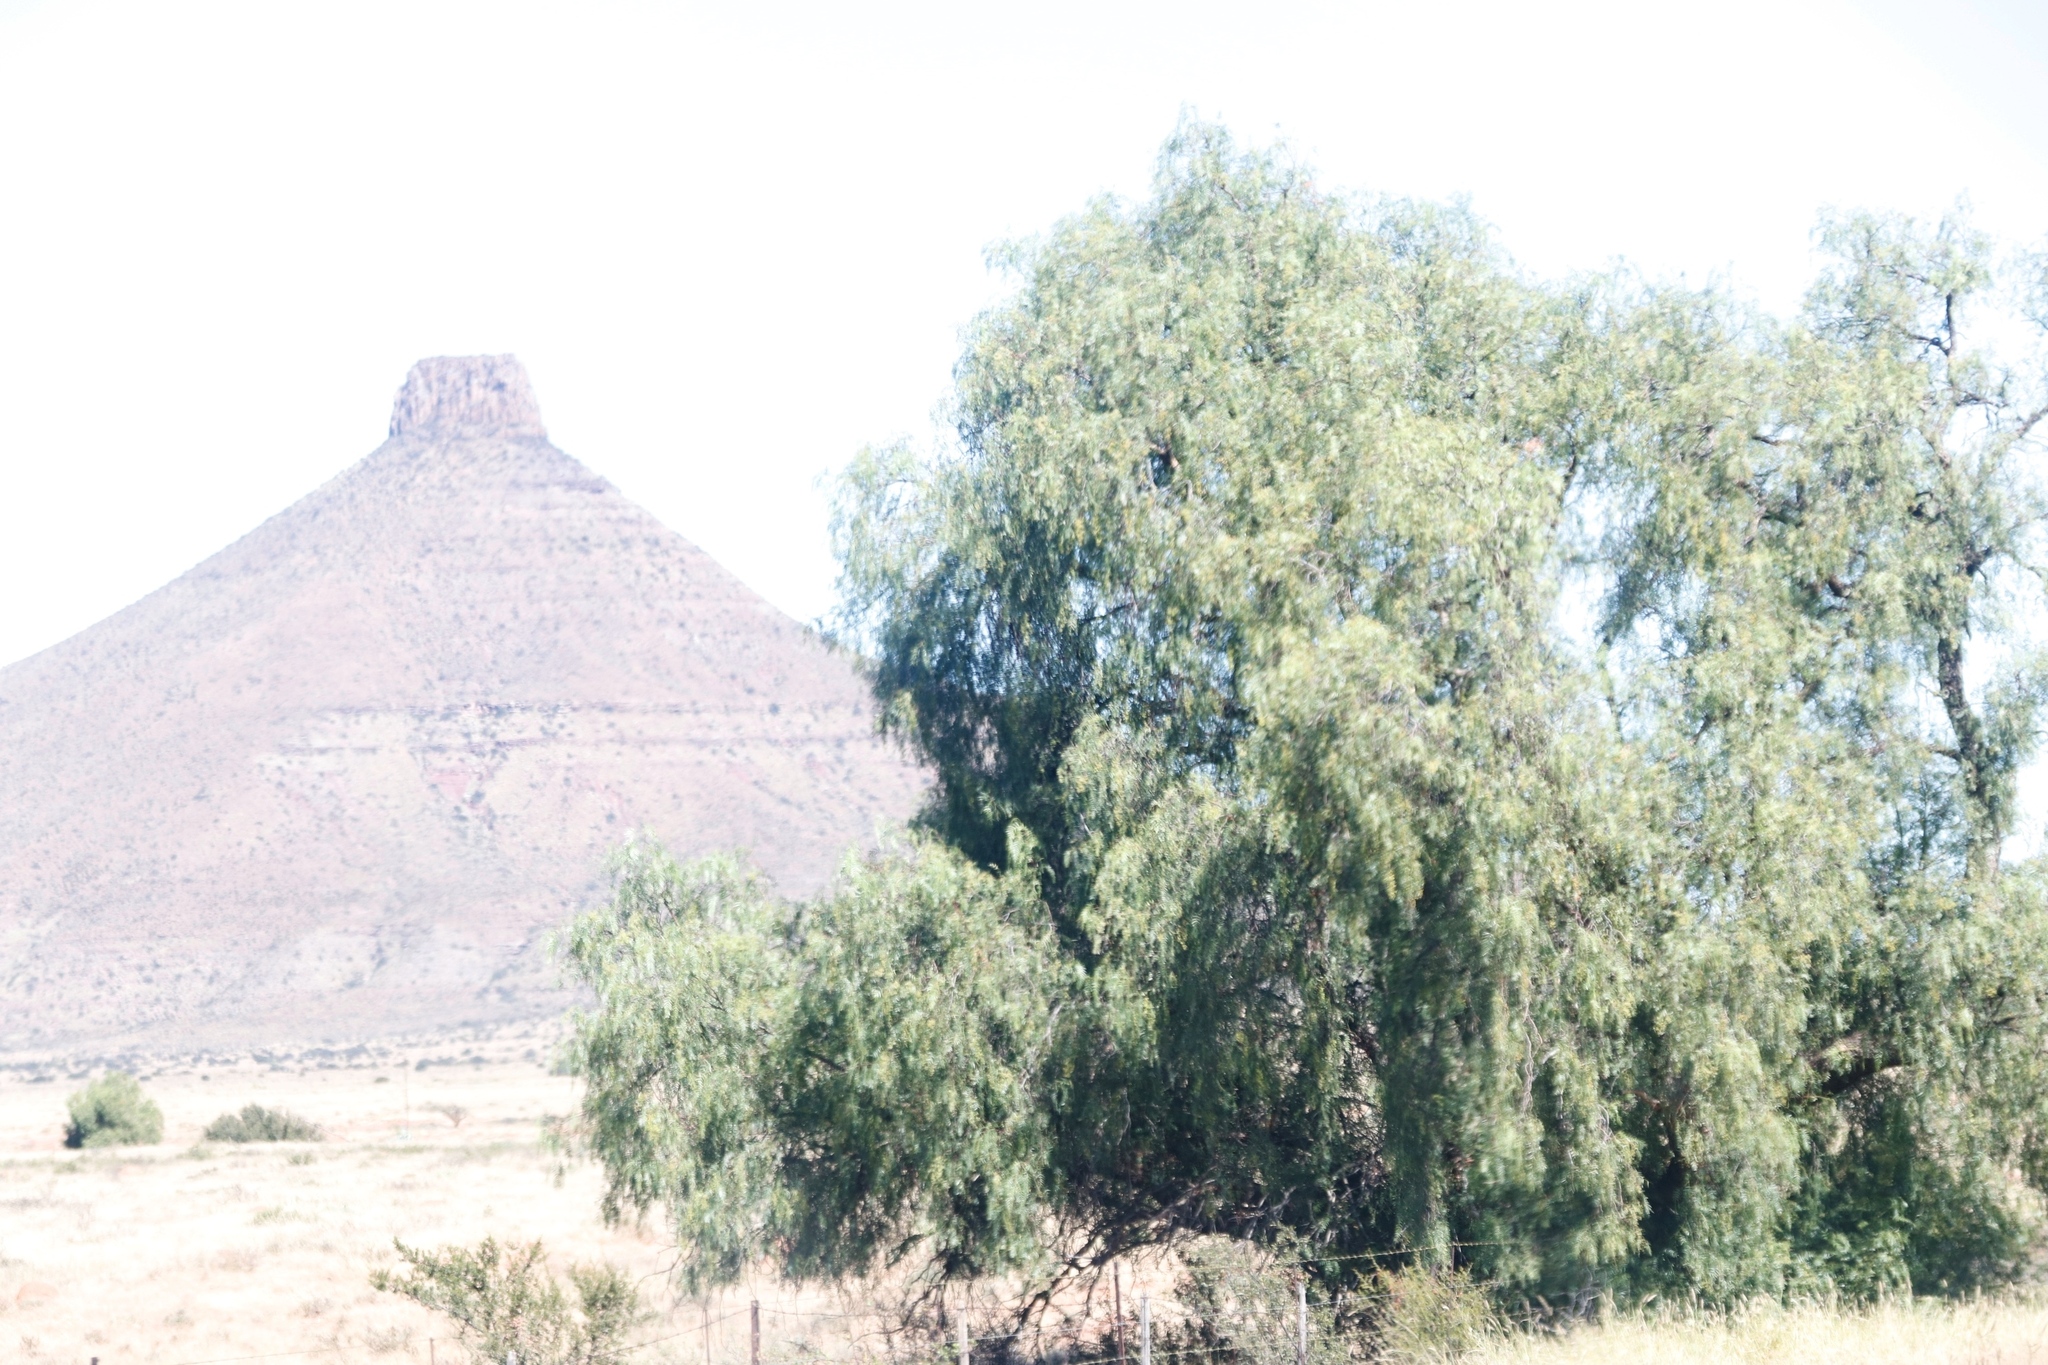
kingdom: Plantae
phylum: Tracheophyta
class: Magnoliopsida
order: Sapindales
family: Anacardiaceae
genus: Schinus
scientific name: Schinus molle
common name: Peruvian peppertree
